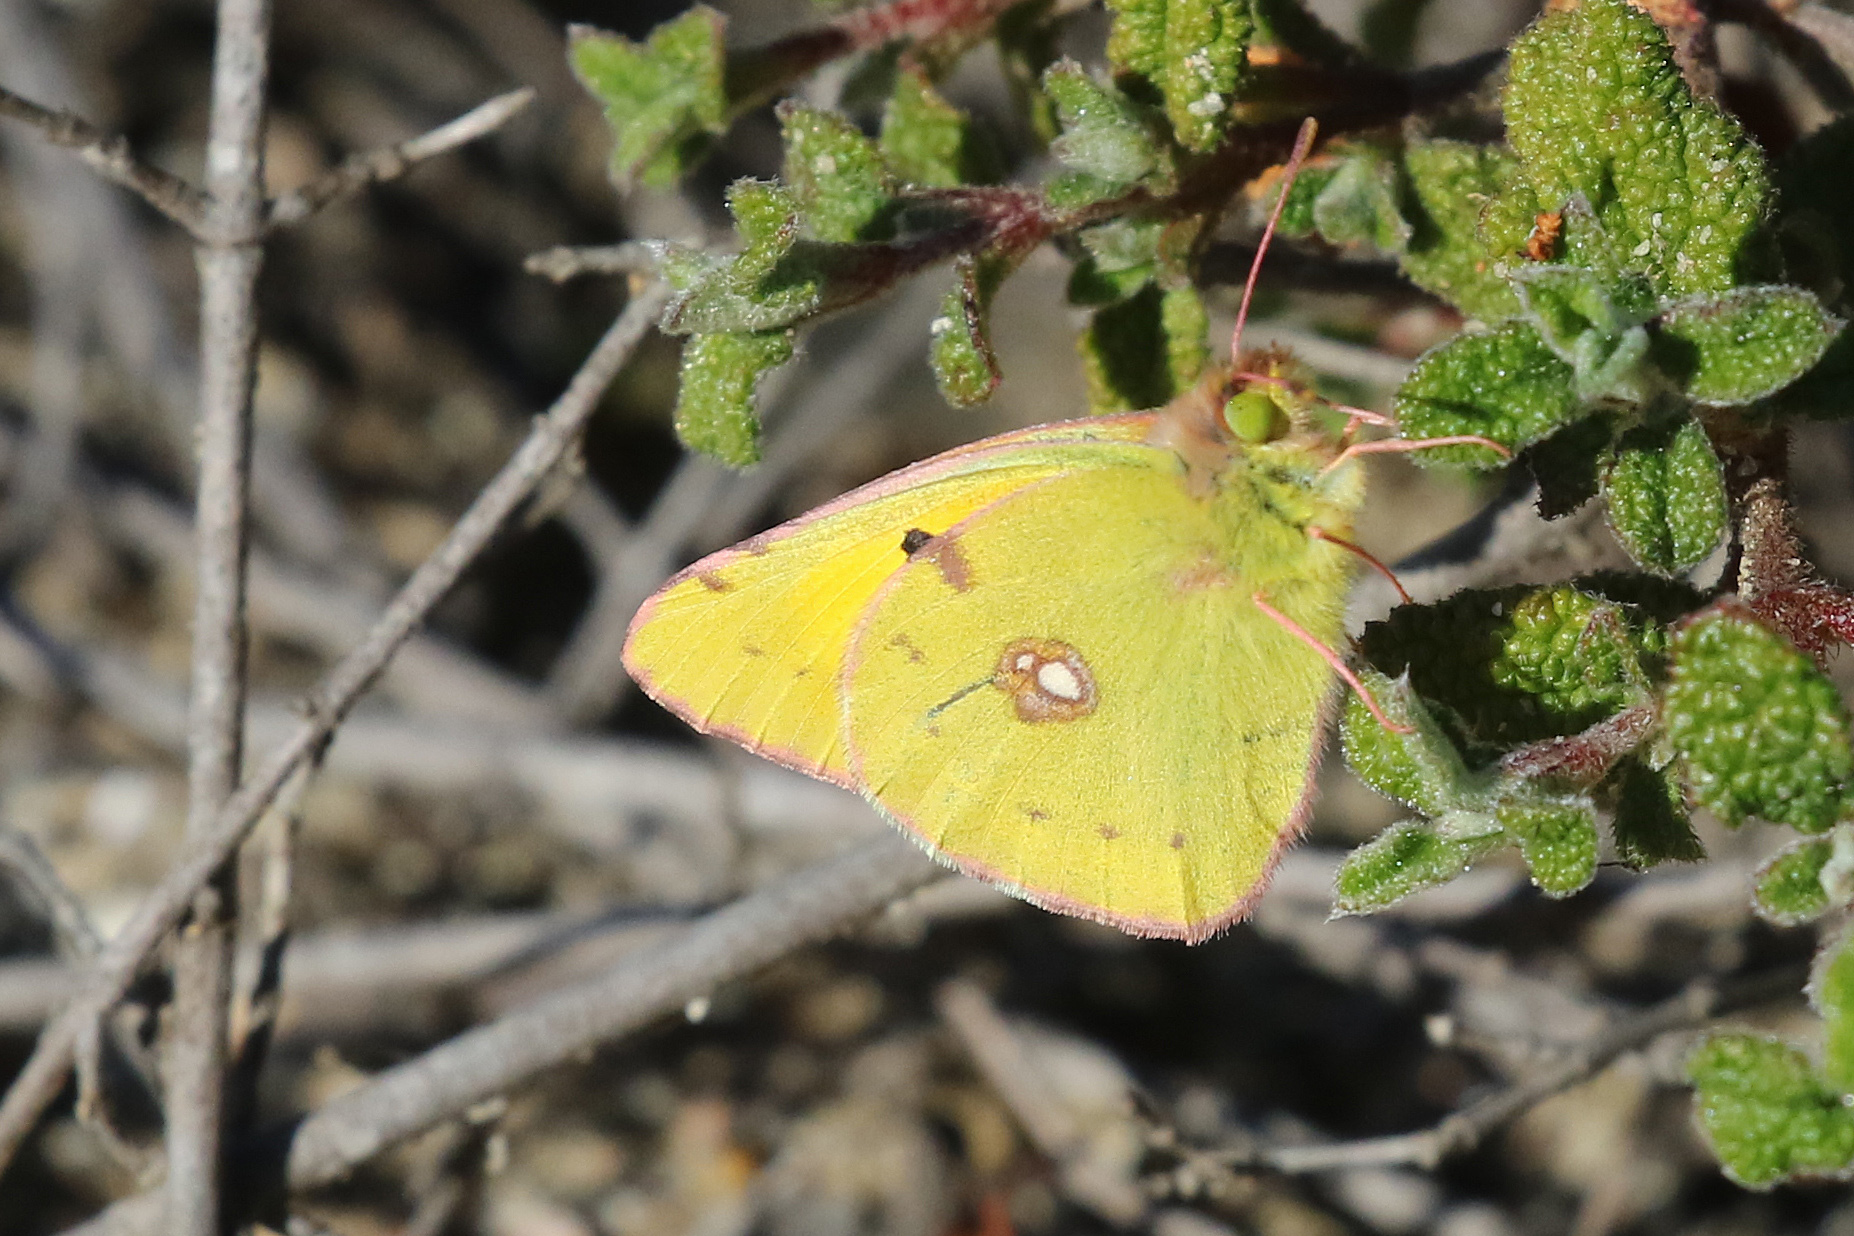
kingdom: Animalia
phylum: Arthropoda
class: Insecta
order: Lepidoptera
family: Pieridae
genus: Colias
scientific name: Colias croceus
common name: Clouded yellow
